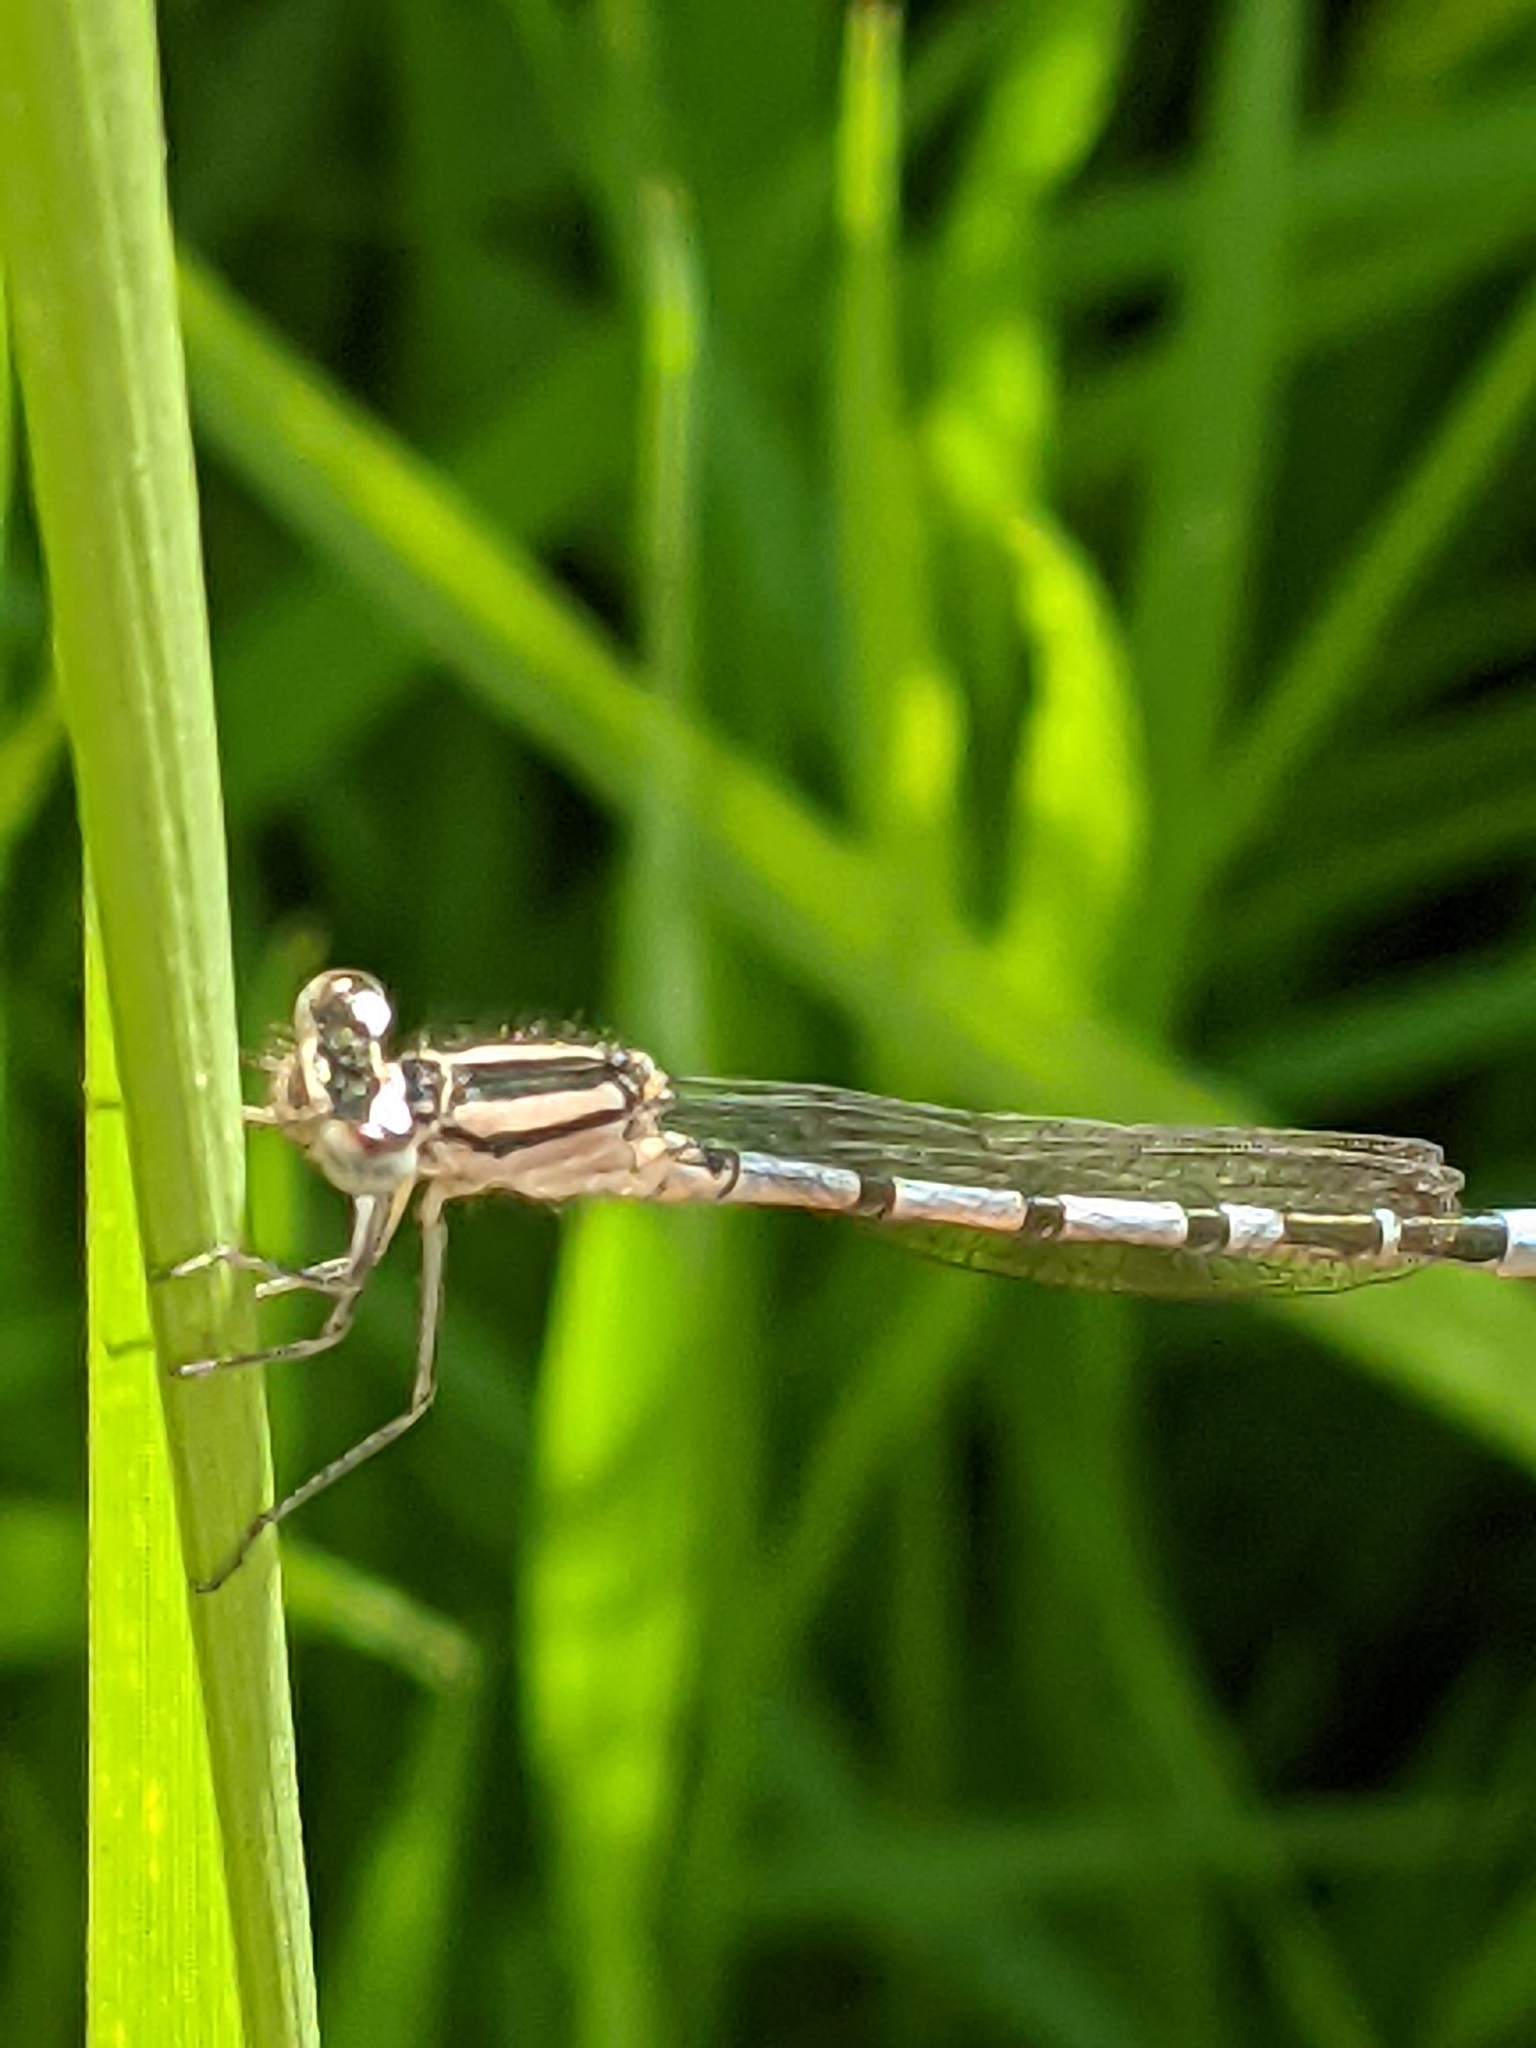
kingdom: Animalia
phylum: Arthropoda
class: Insecta
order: Odonata
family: Coenagrionidae
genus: Enallagma
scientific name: Enallagma cyathigerum
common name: Common blue damselfly
